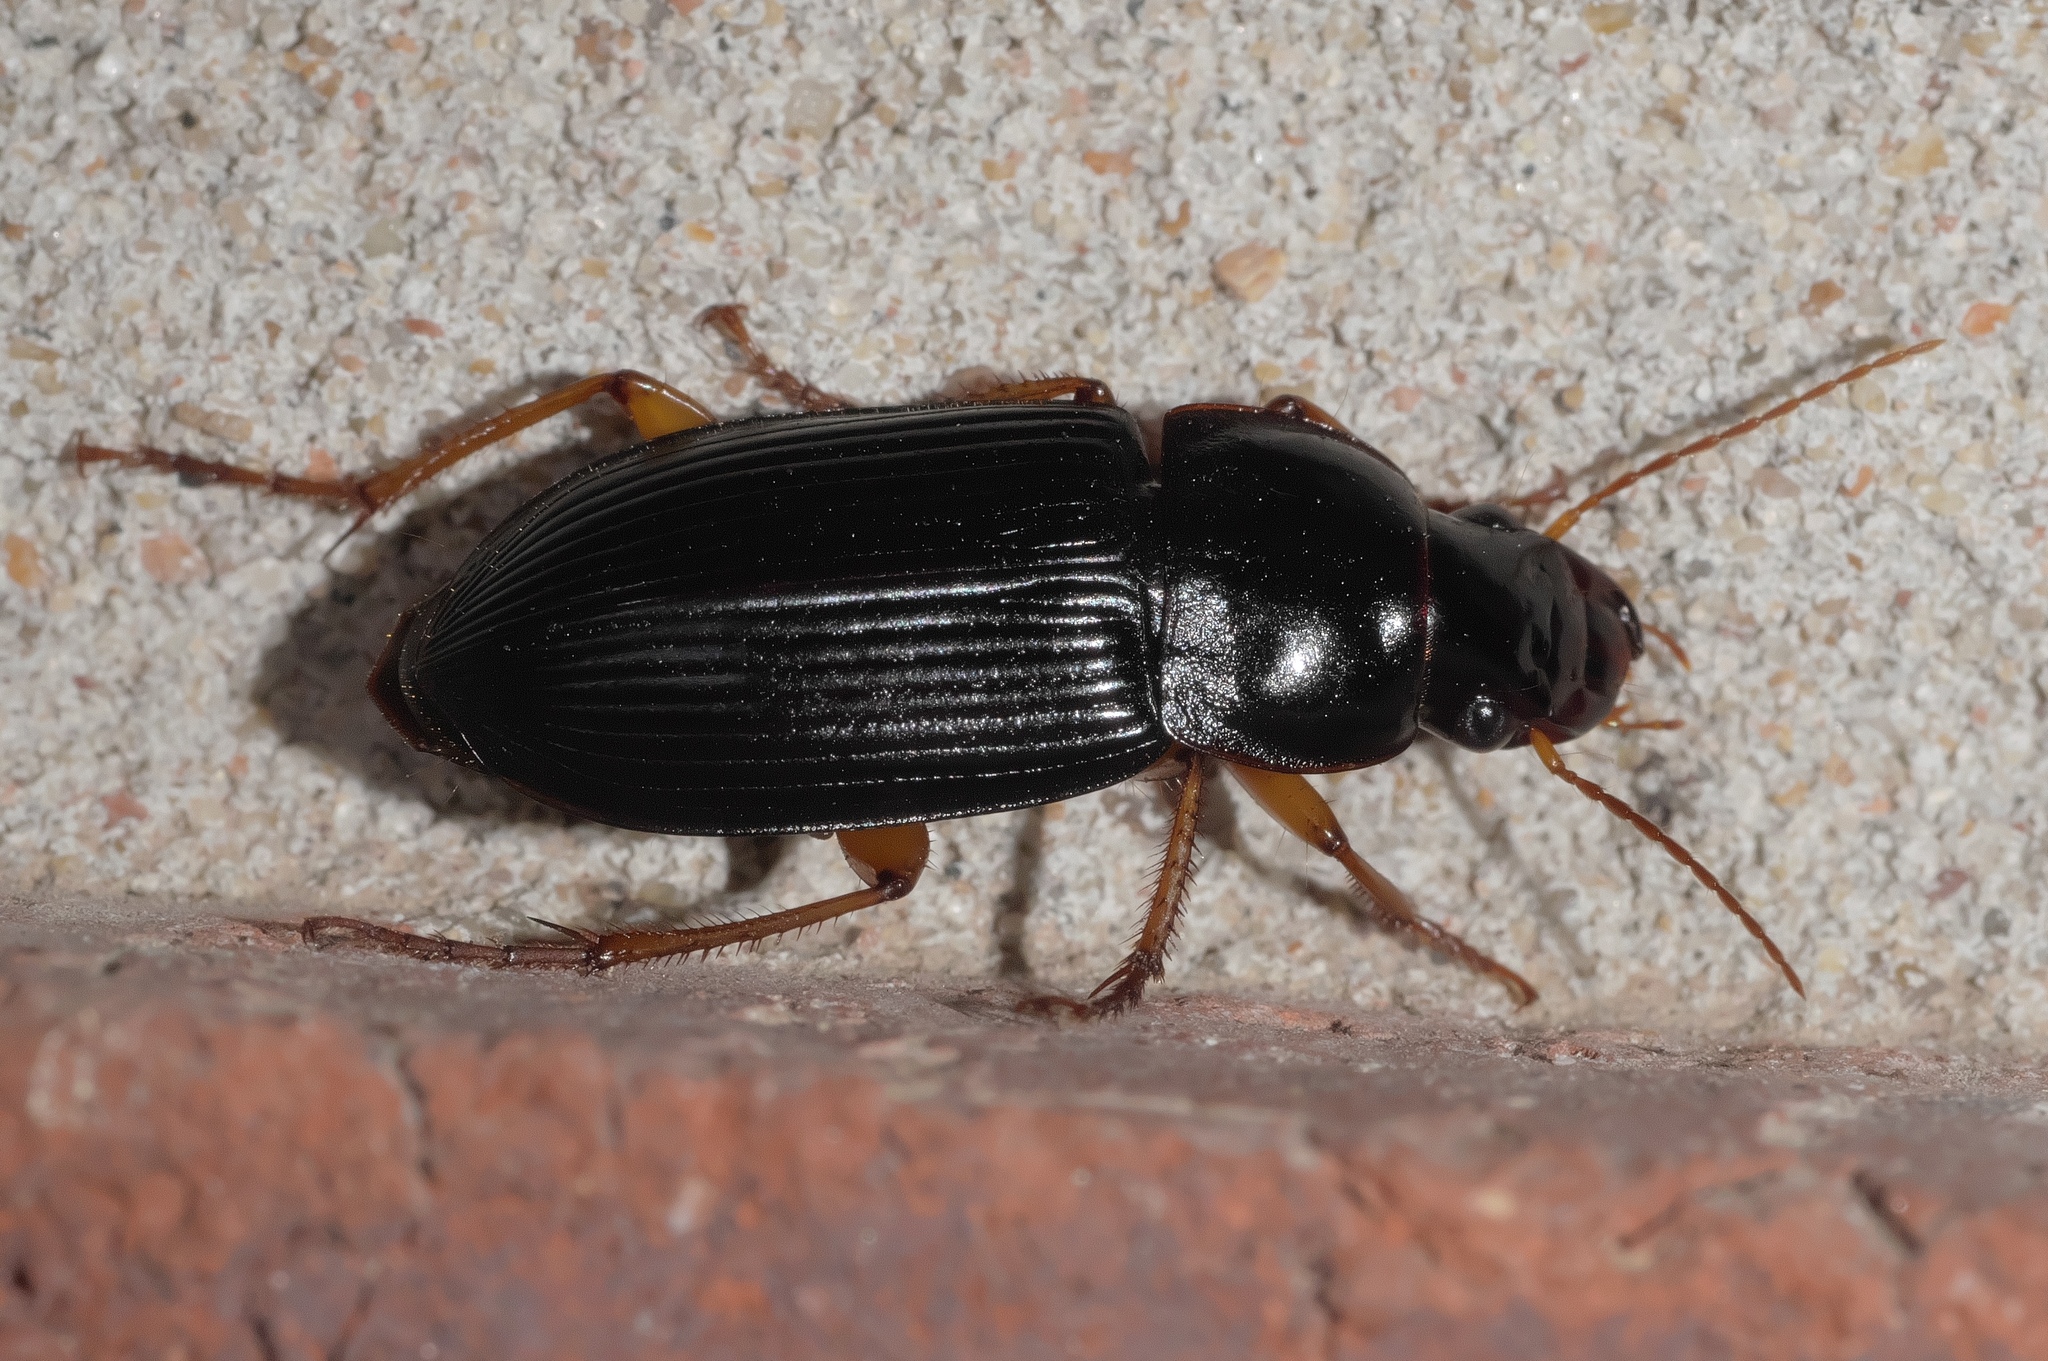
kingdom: Animalia
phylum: Arthropoda
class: Insecta
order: Coleoptera
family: Carabidae
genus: Harpalus
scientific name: Harpalus pensylvanicus
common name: Pennsylvania dingy ground beetle
